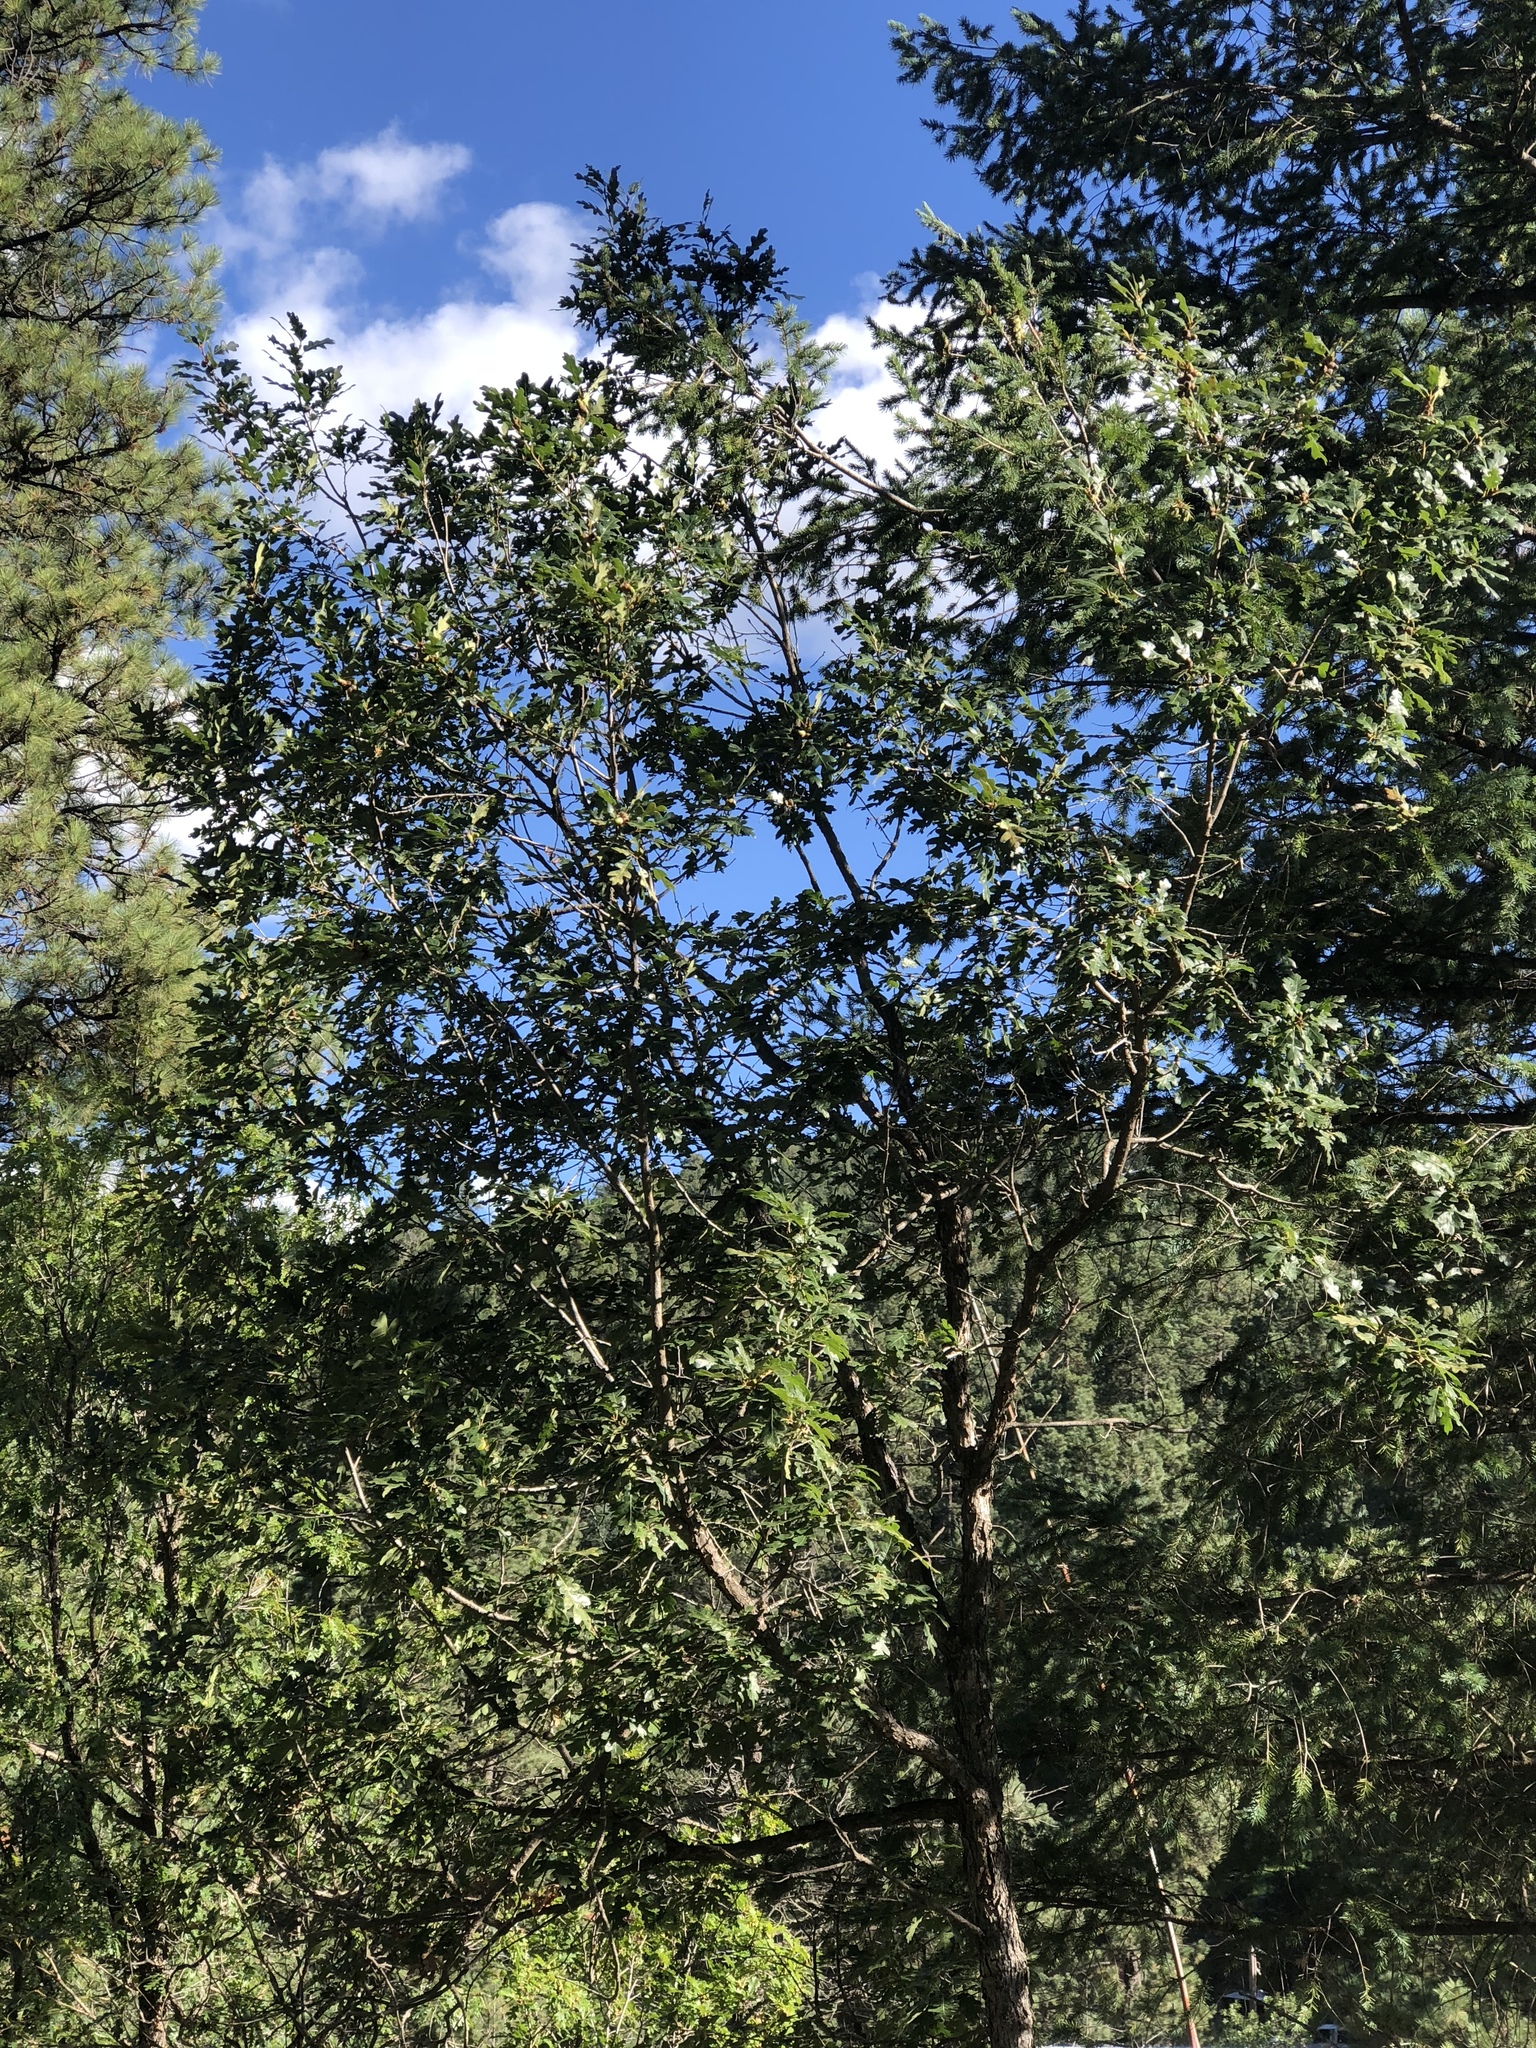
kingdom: Plantae
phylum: Tracheophyta
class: Magnoliopsida
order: Fagales
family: Fagaceae
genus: Quercus
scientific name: Quercus gambelii
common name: Gambel oak
